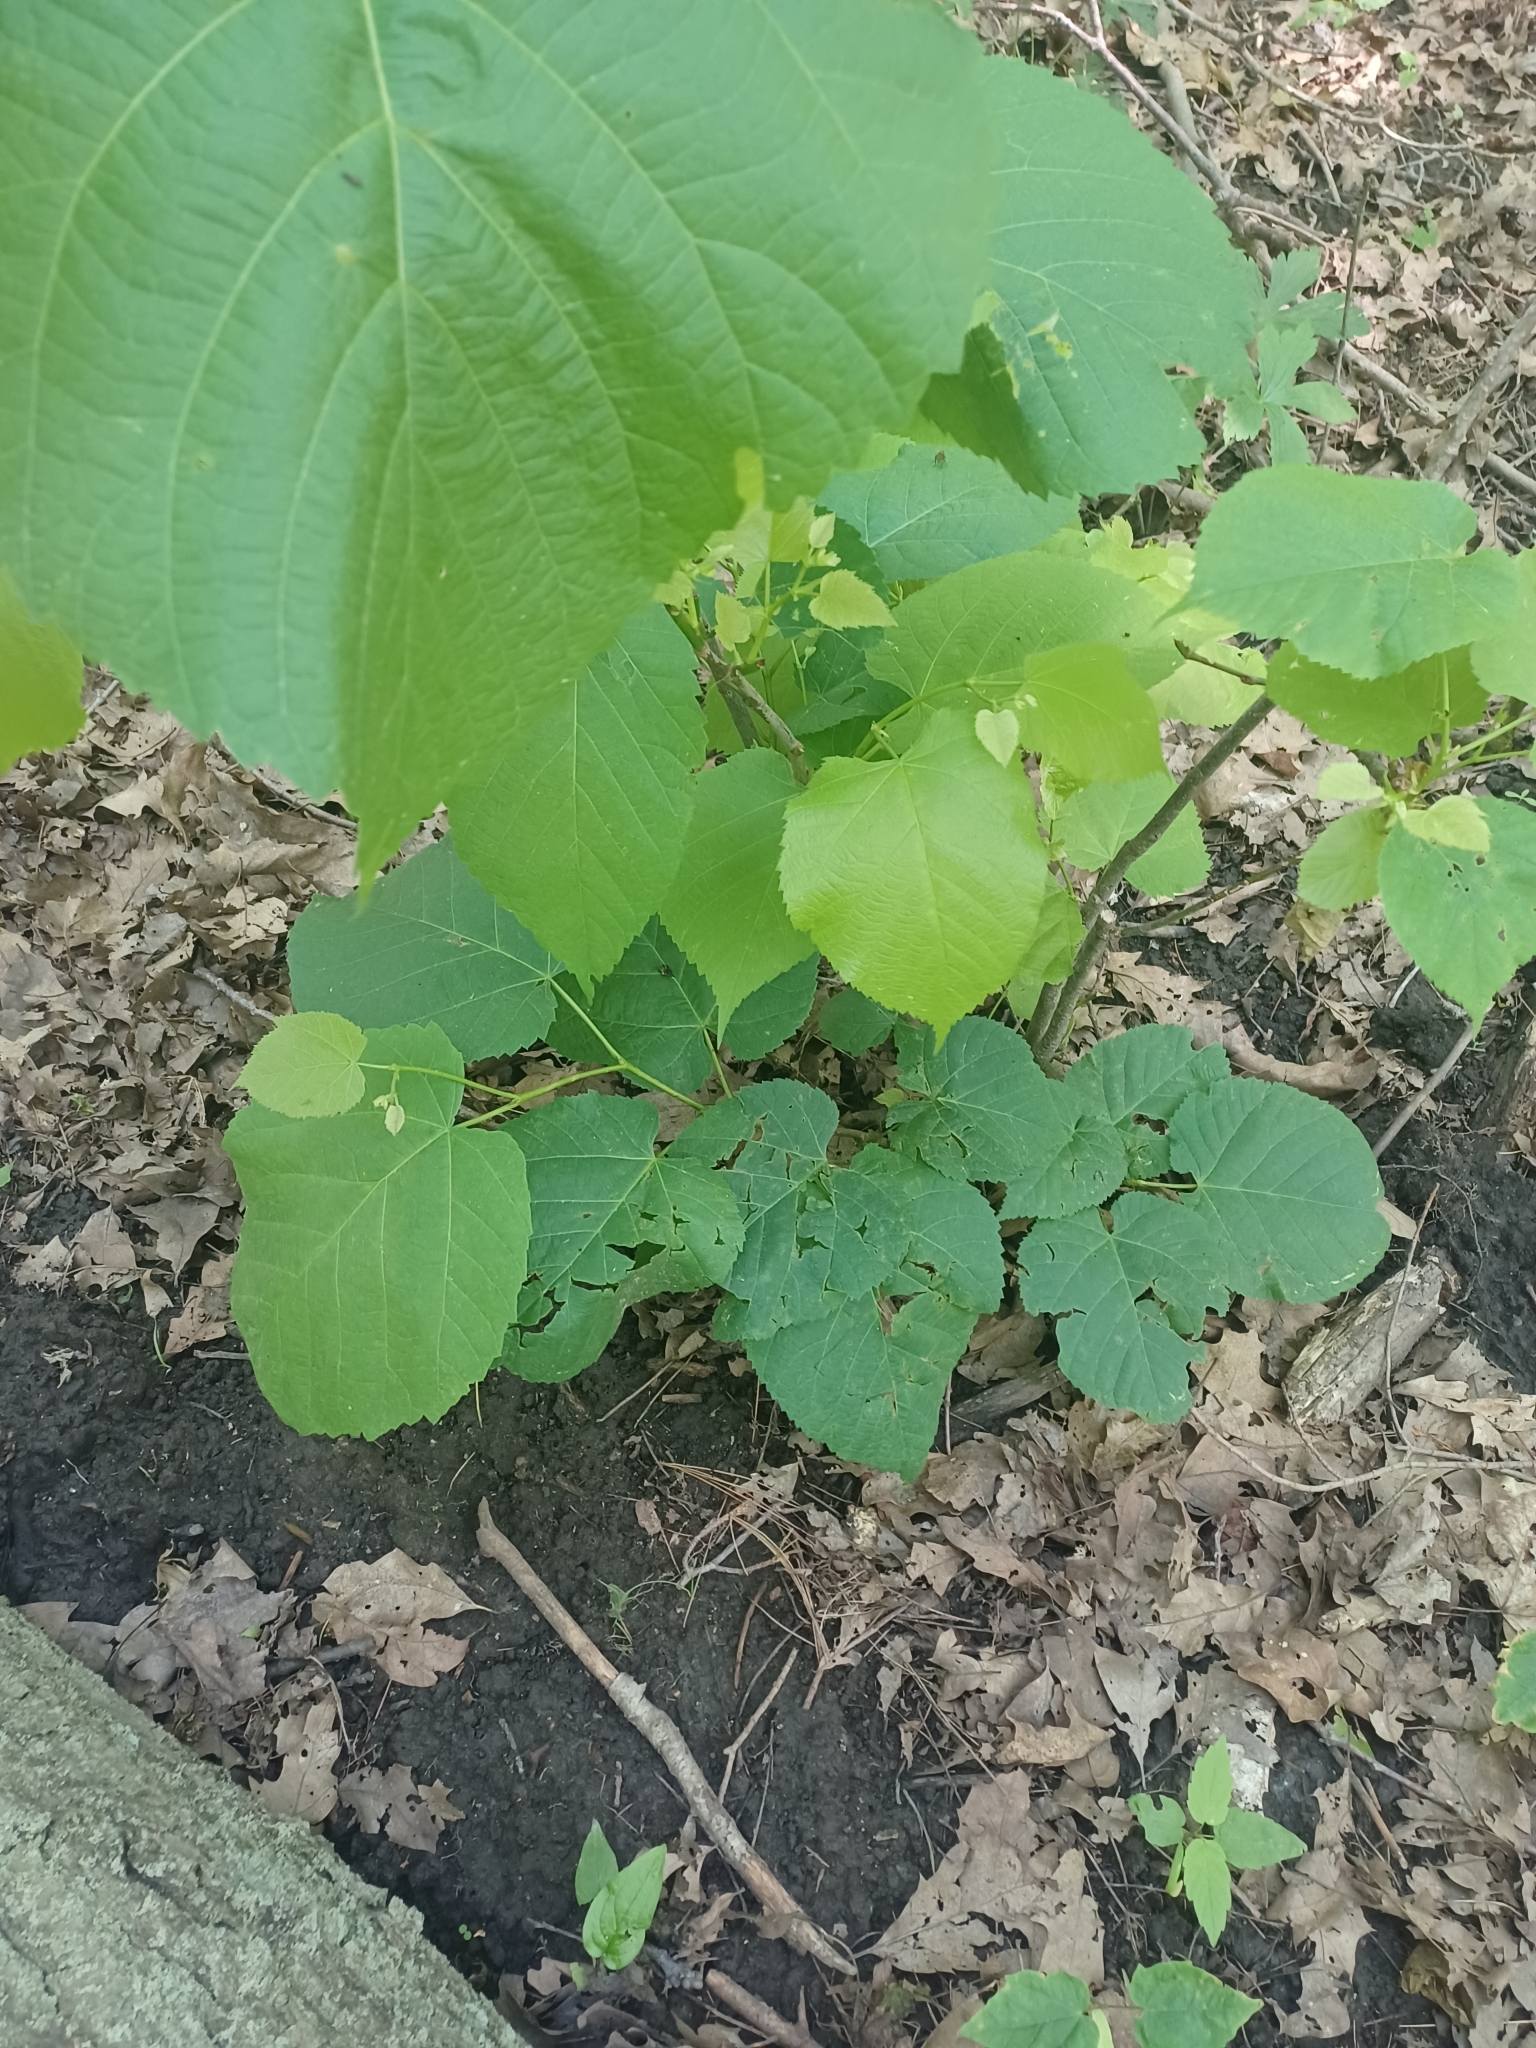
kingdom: Plantae
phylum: Tracheophyta
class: Magnoliopsida
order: Malvales
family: Malvaceae
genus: Tilia
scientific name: Tilia americana
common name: Basswood
